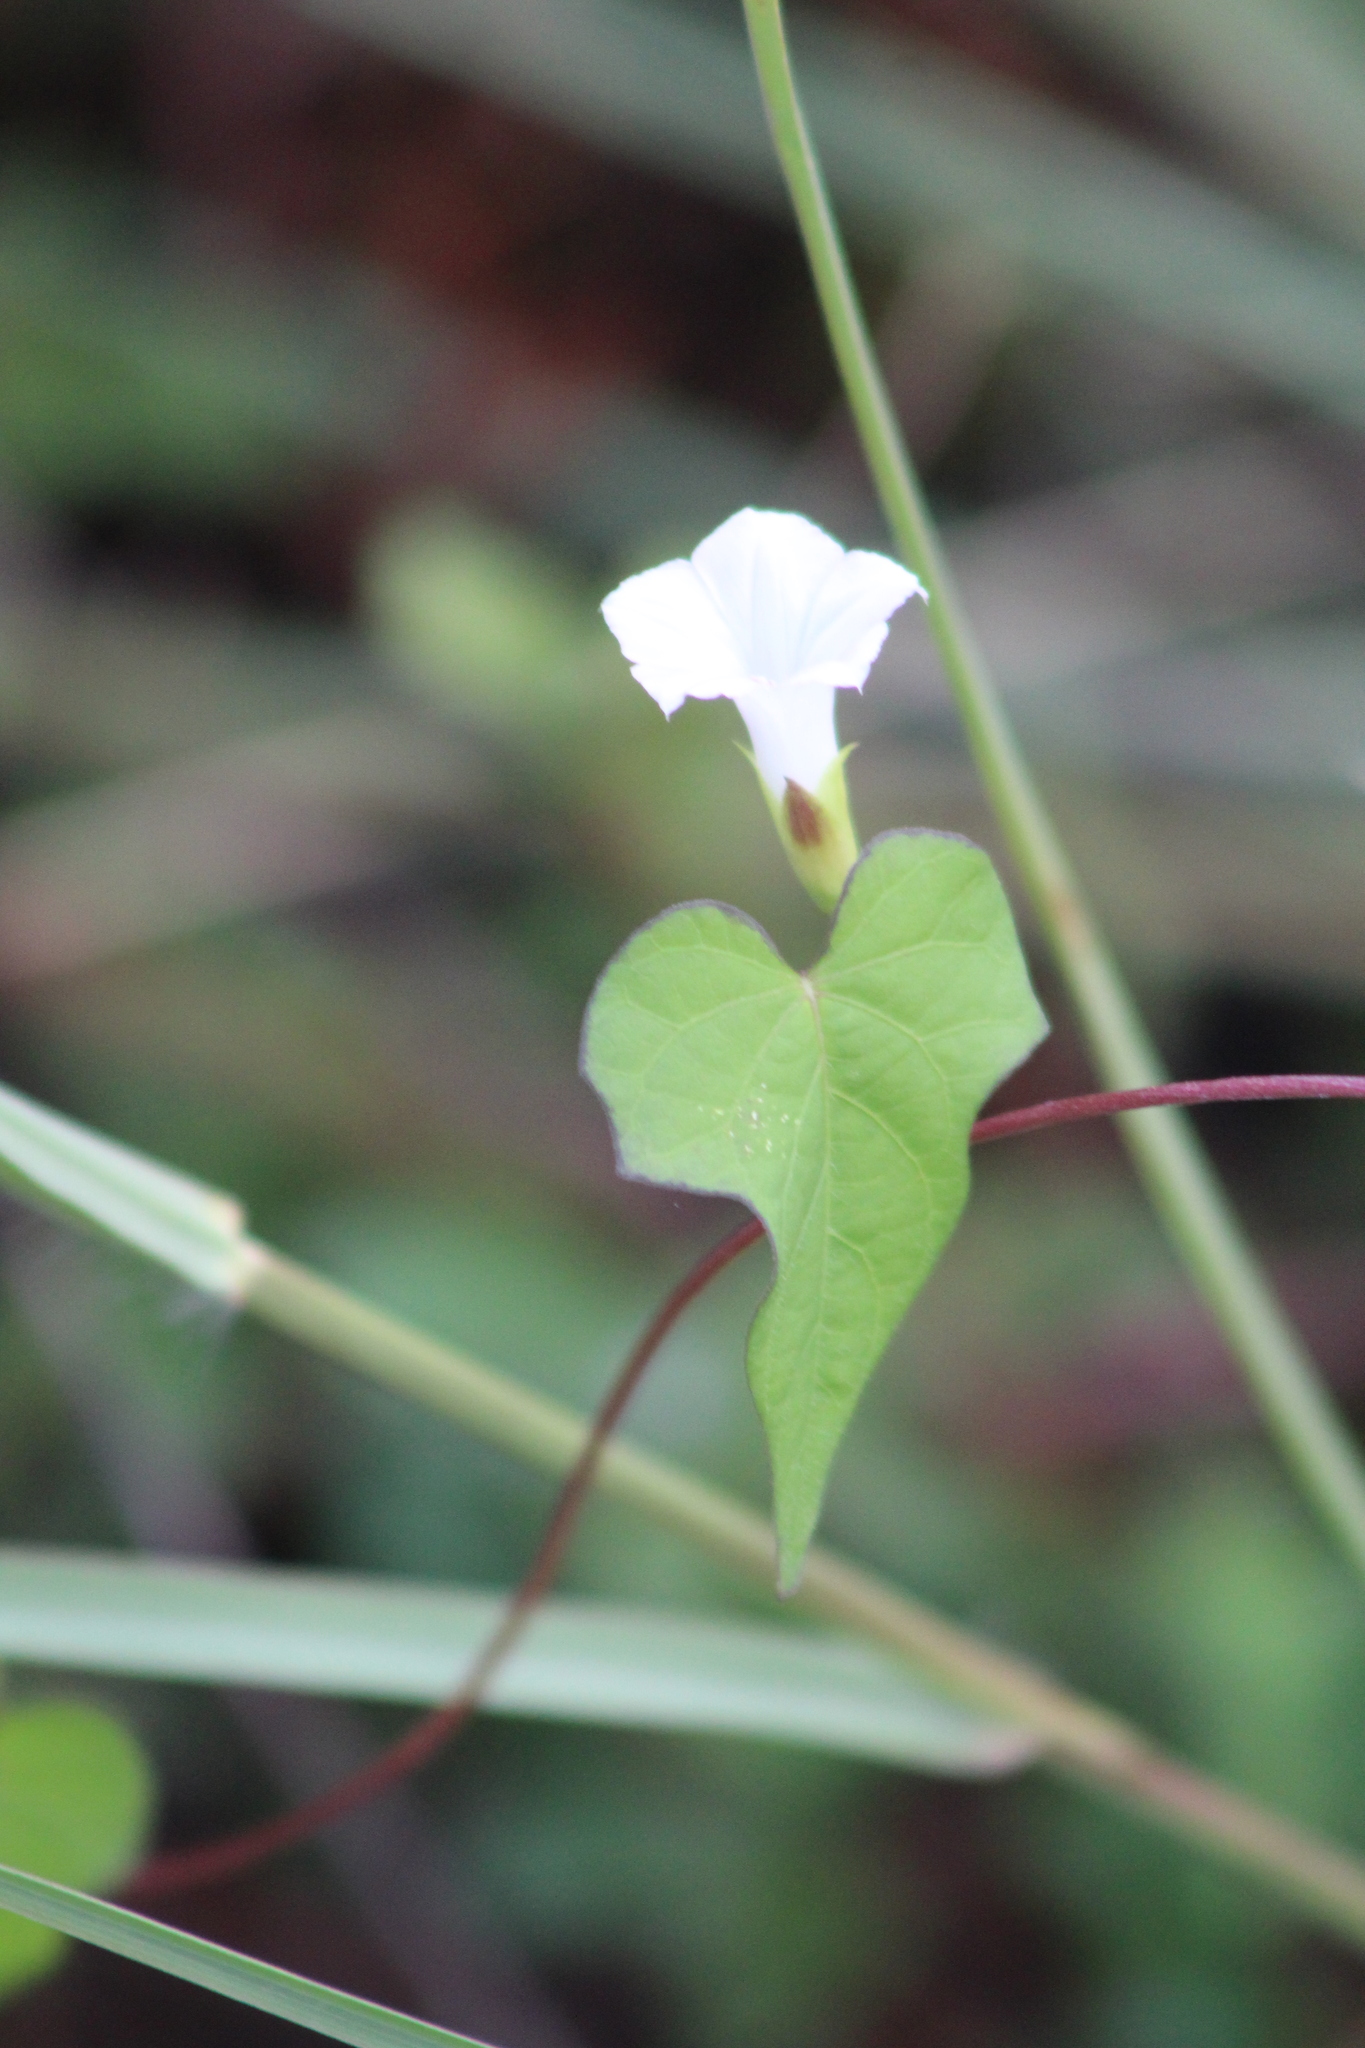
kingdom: Plantae
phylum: Tracheophyta
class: Magnoliopsida
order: Solanales
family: Convolvulaceae
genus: Ipomoea
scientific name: Ipomoea lacunosa
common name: White morning-glory
